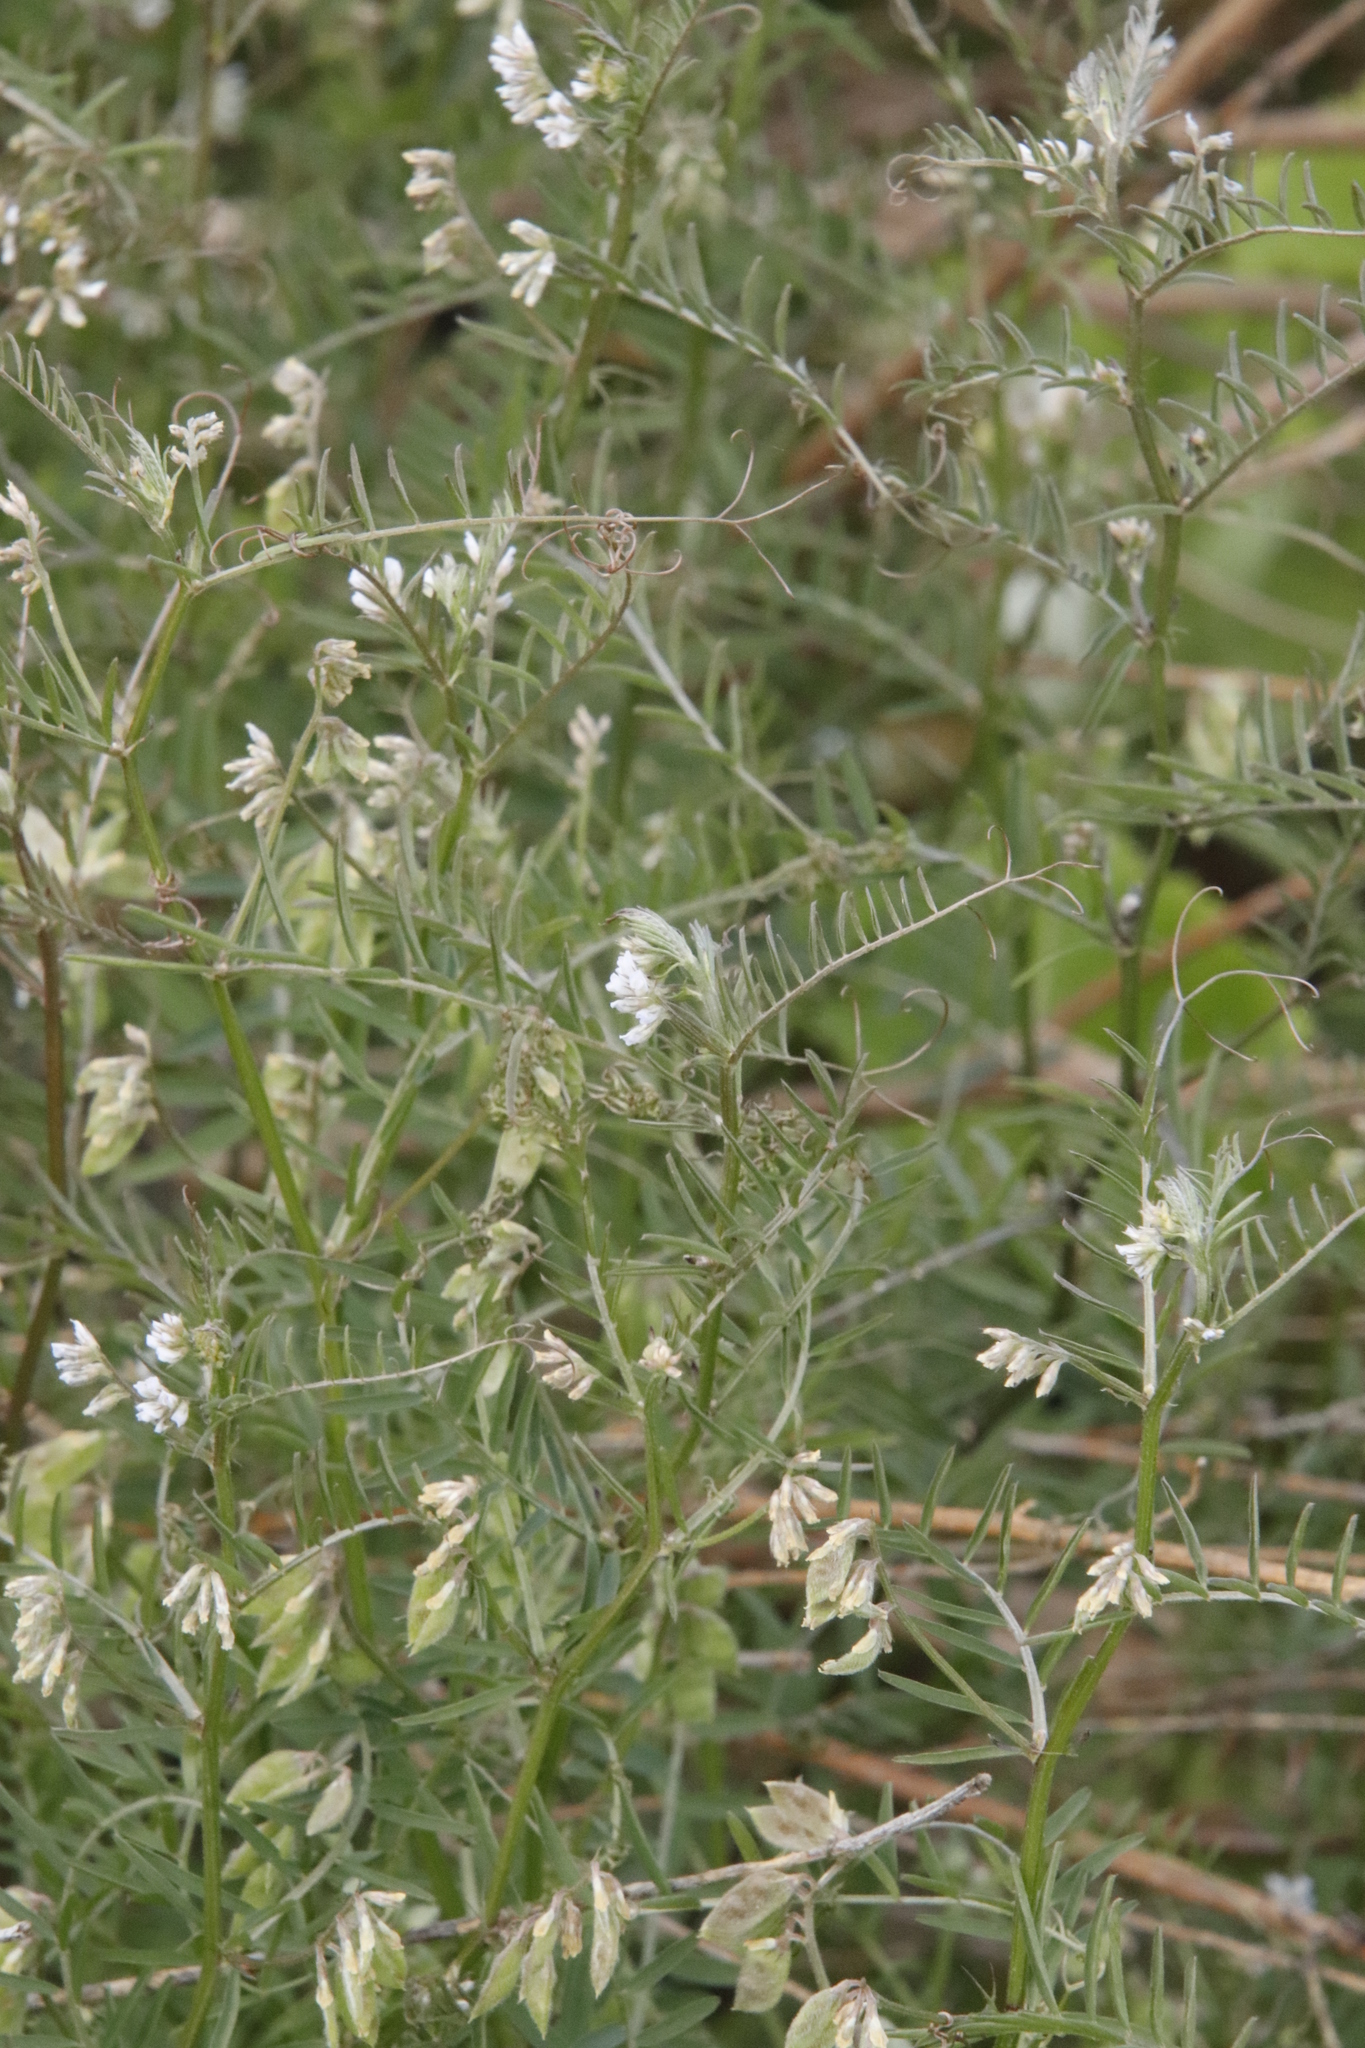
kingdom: Plantae
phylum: Tracheophyta
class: Magnoliopsida
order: Fabales
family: Fabaceae
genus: Vicia
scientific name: Vicia hirsuta
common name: Tiny vetch
